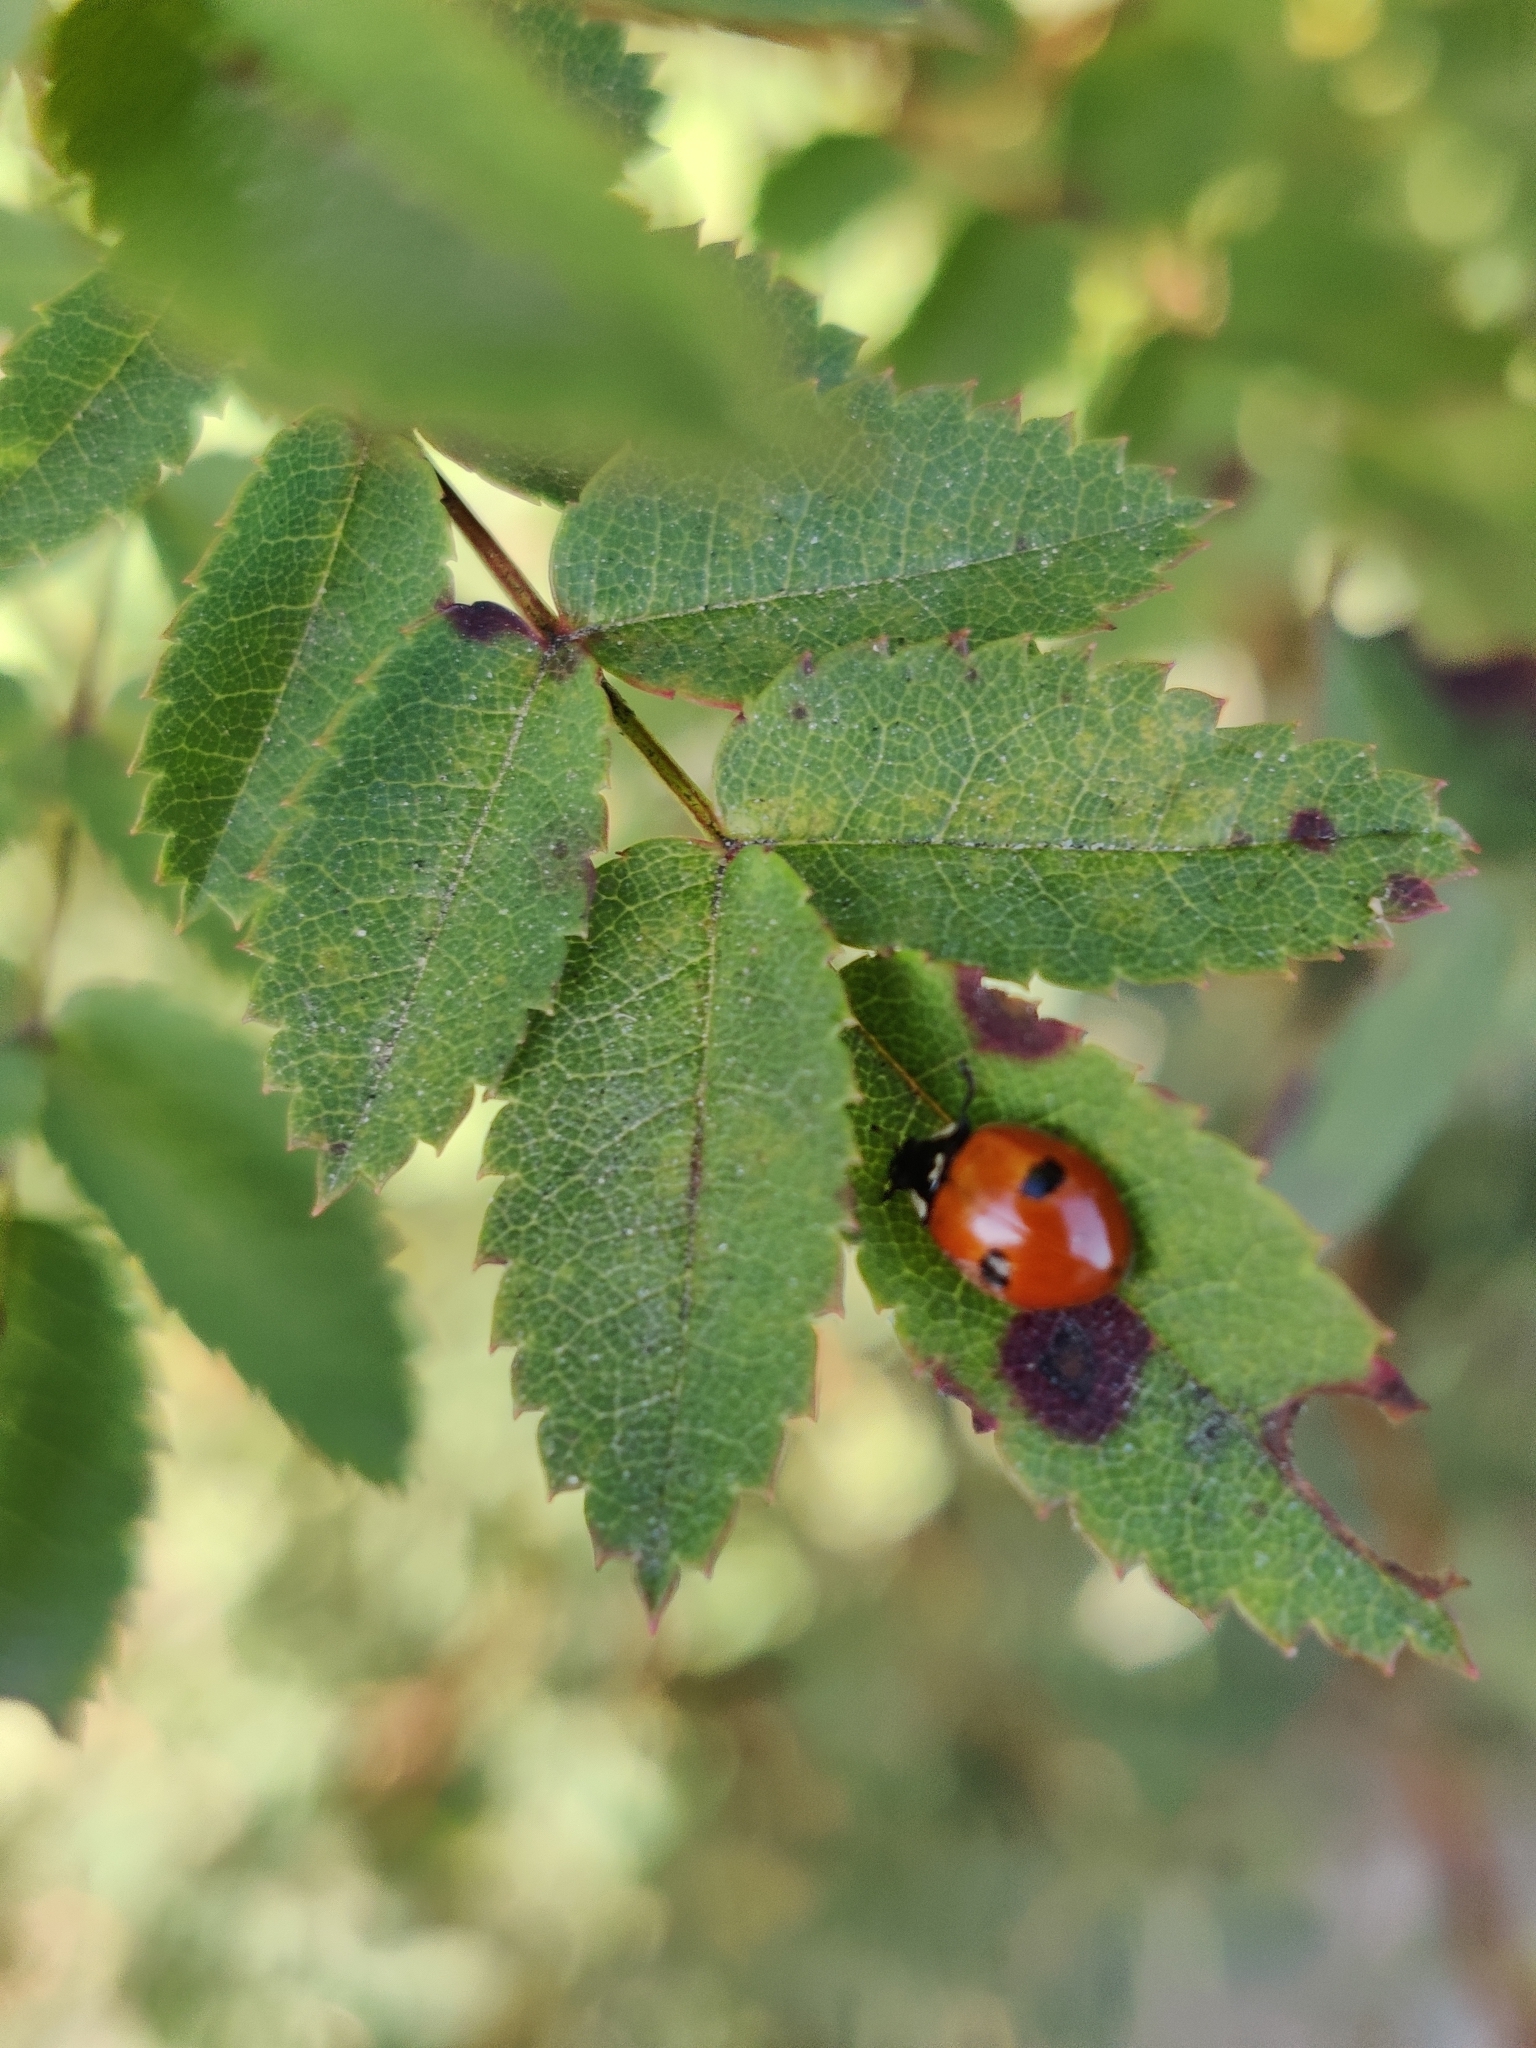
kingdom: Animalia
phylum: Arthropoda
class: Insecta
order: Coleoptera
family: Coccinellidae
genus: Adalia
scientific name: Adalia bipunctata
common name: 2-spot ladybird
